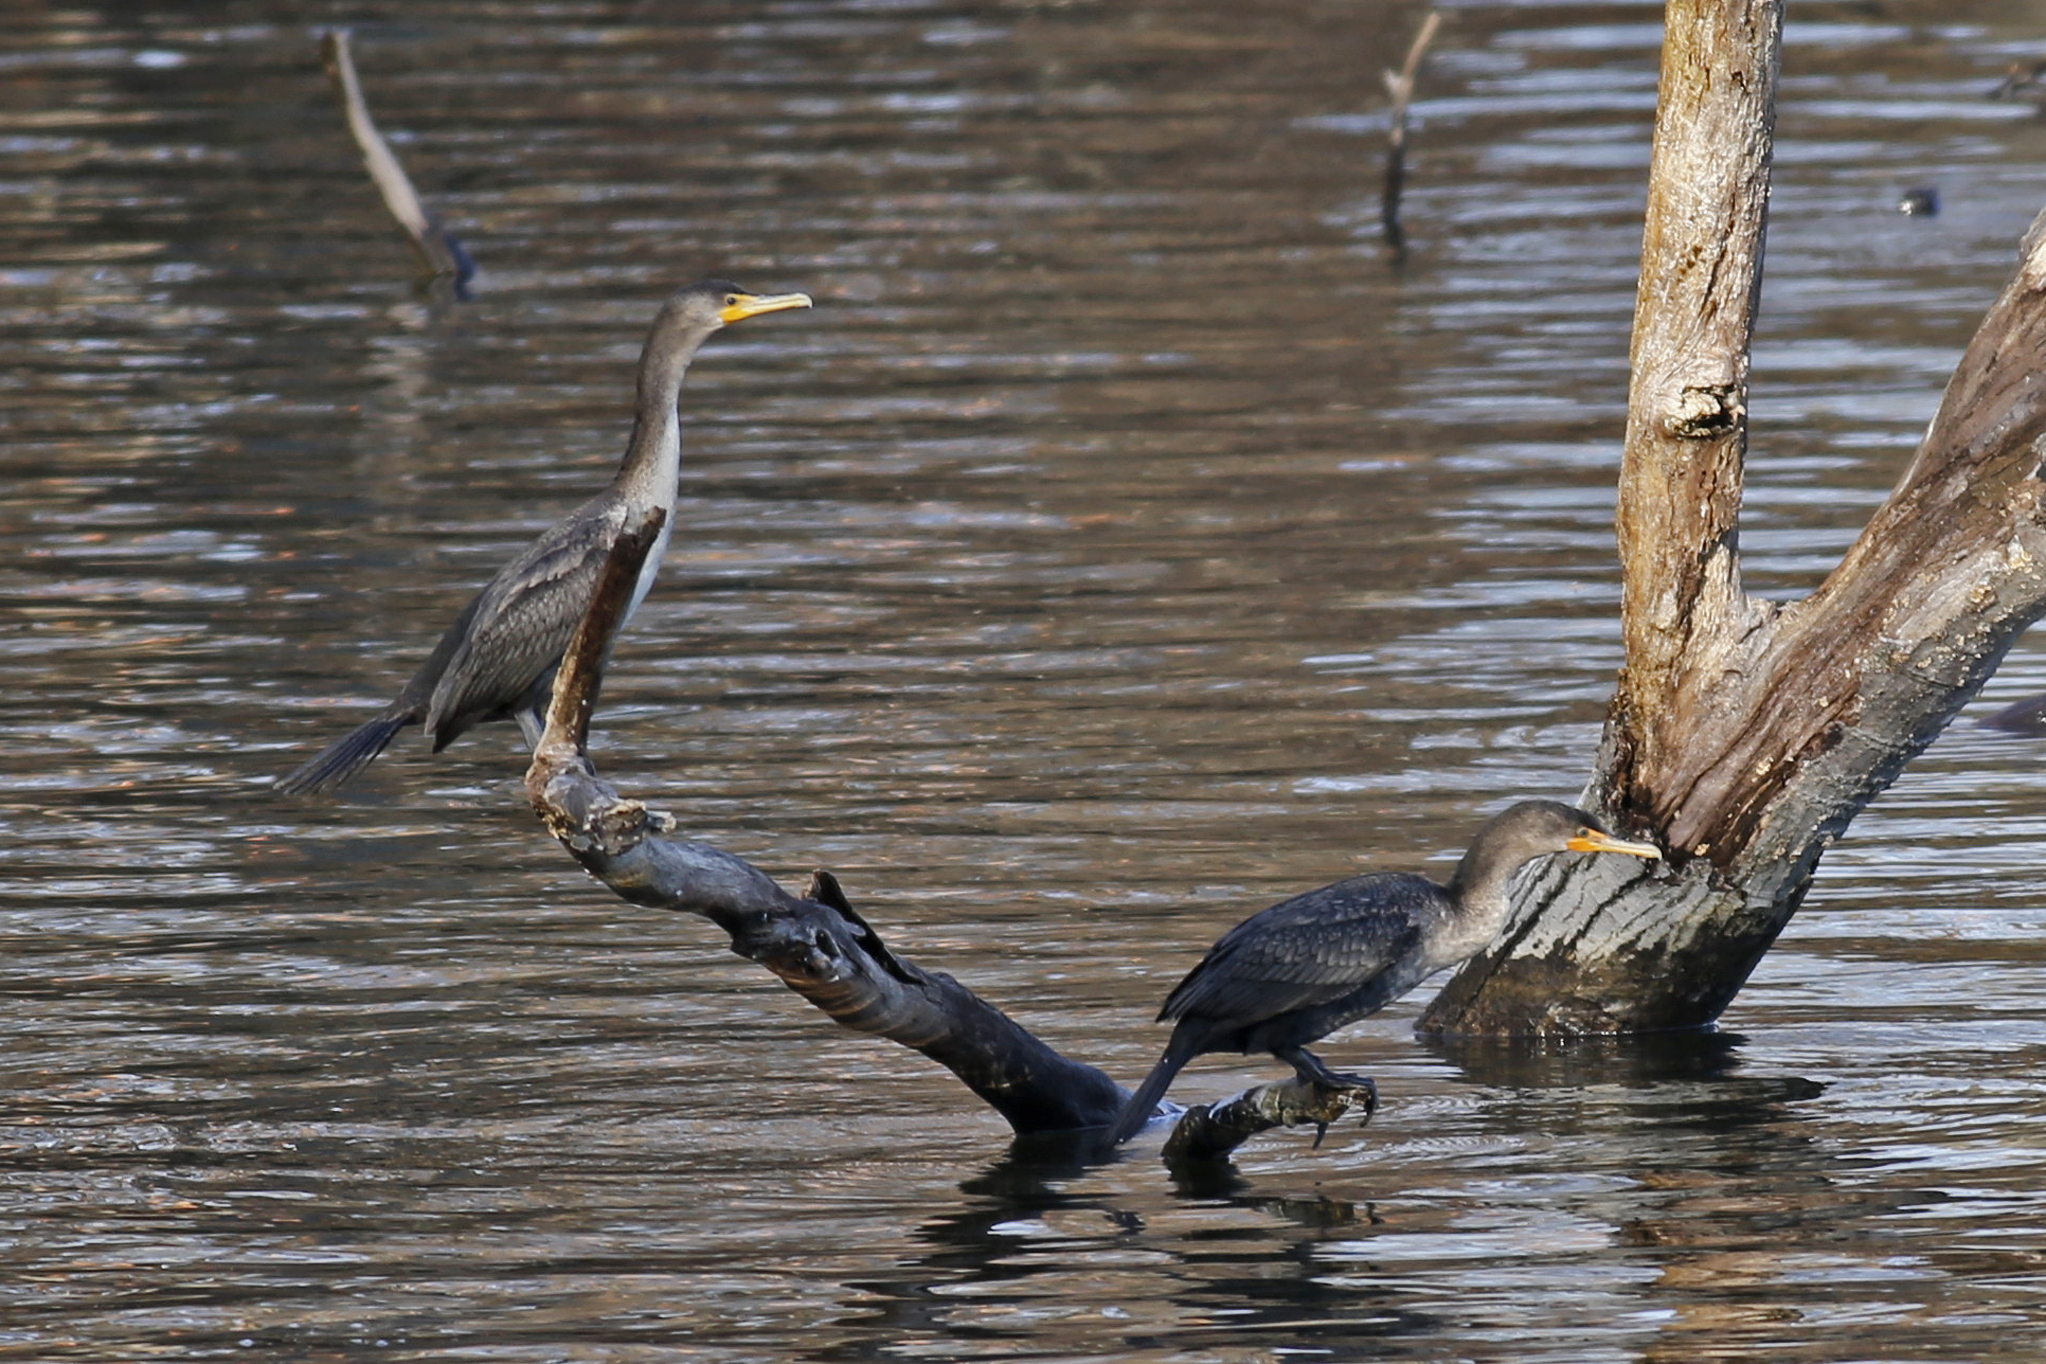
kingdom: Animalia
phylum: Chordata
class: Aves
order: Suliformes
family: Phalacrocoracidae
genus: Phalacrocorax
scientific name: Phalacrocorax auritus
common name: Double-crested cormorant
